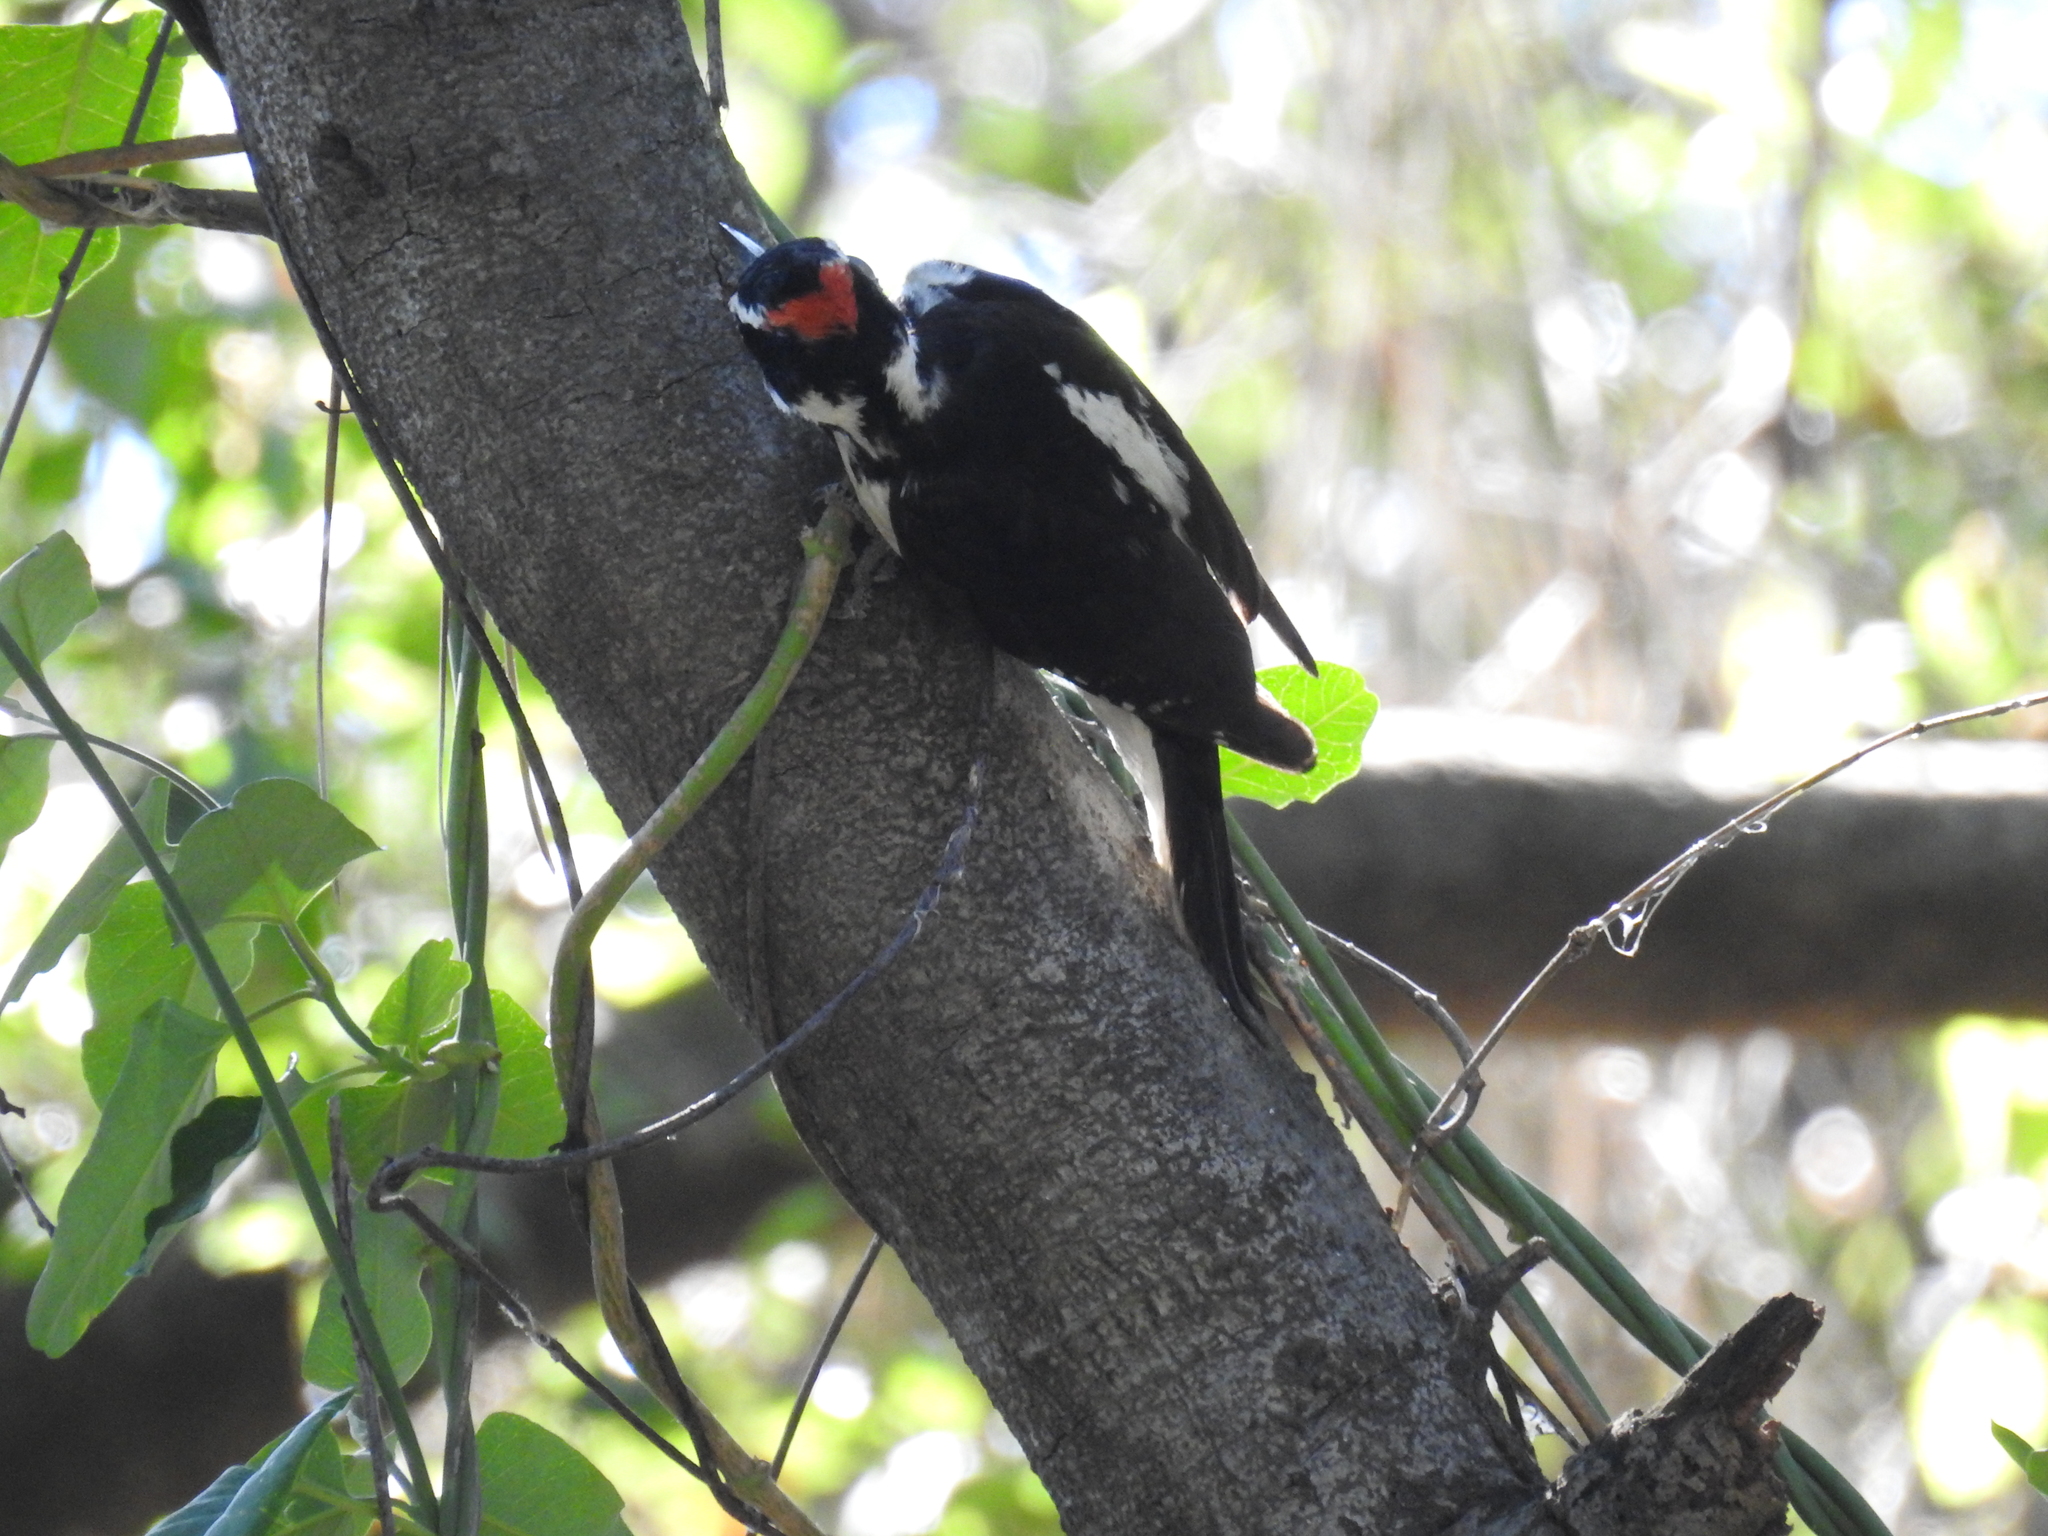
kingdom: Animalia
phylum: Chordata
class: Aves
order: Piciformes
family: Picidae
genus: Leuconotopicus
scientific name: Leuconotopicus villosus
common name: Hairy woodpecker
